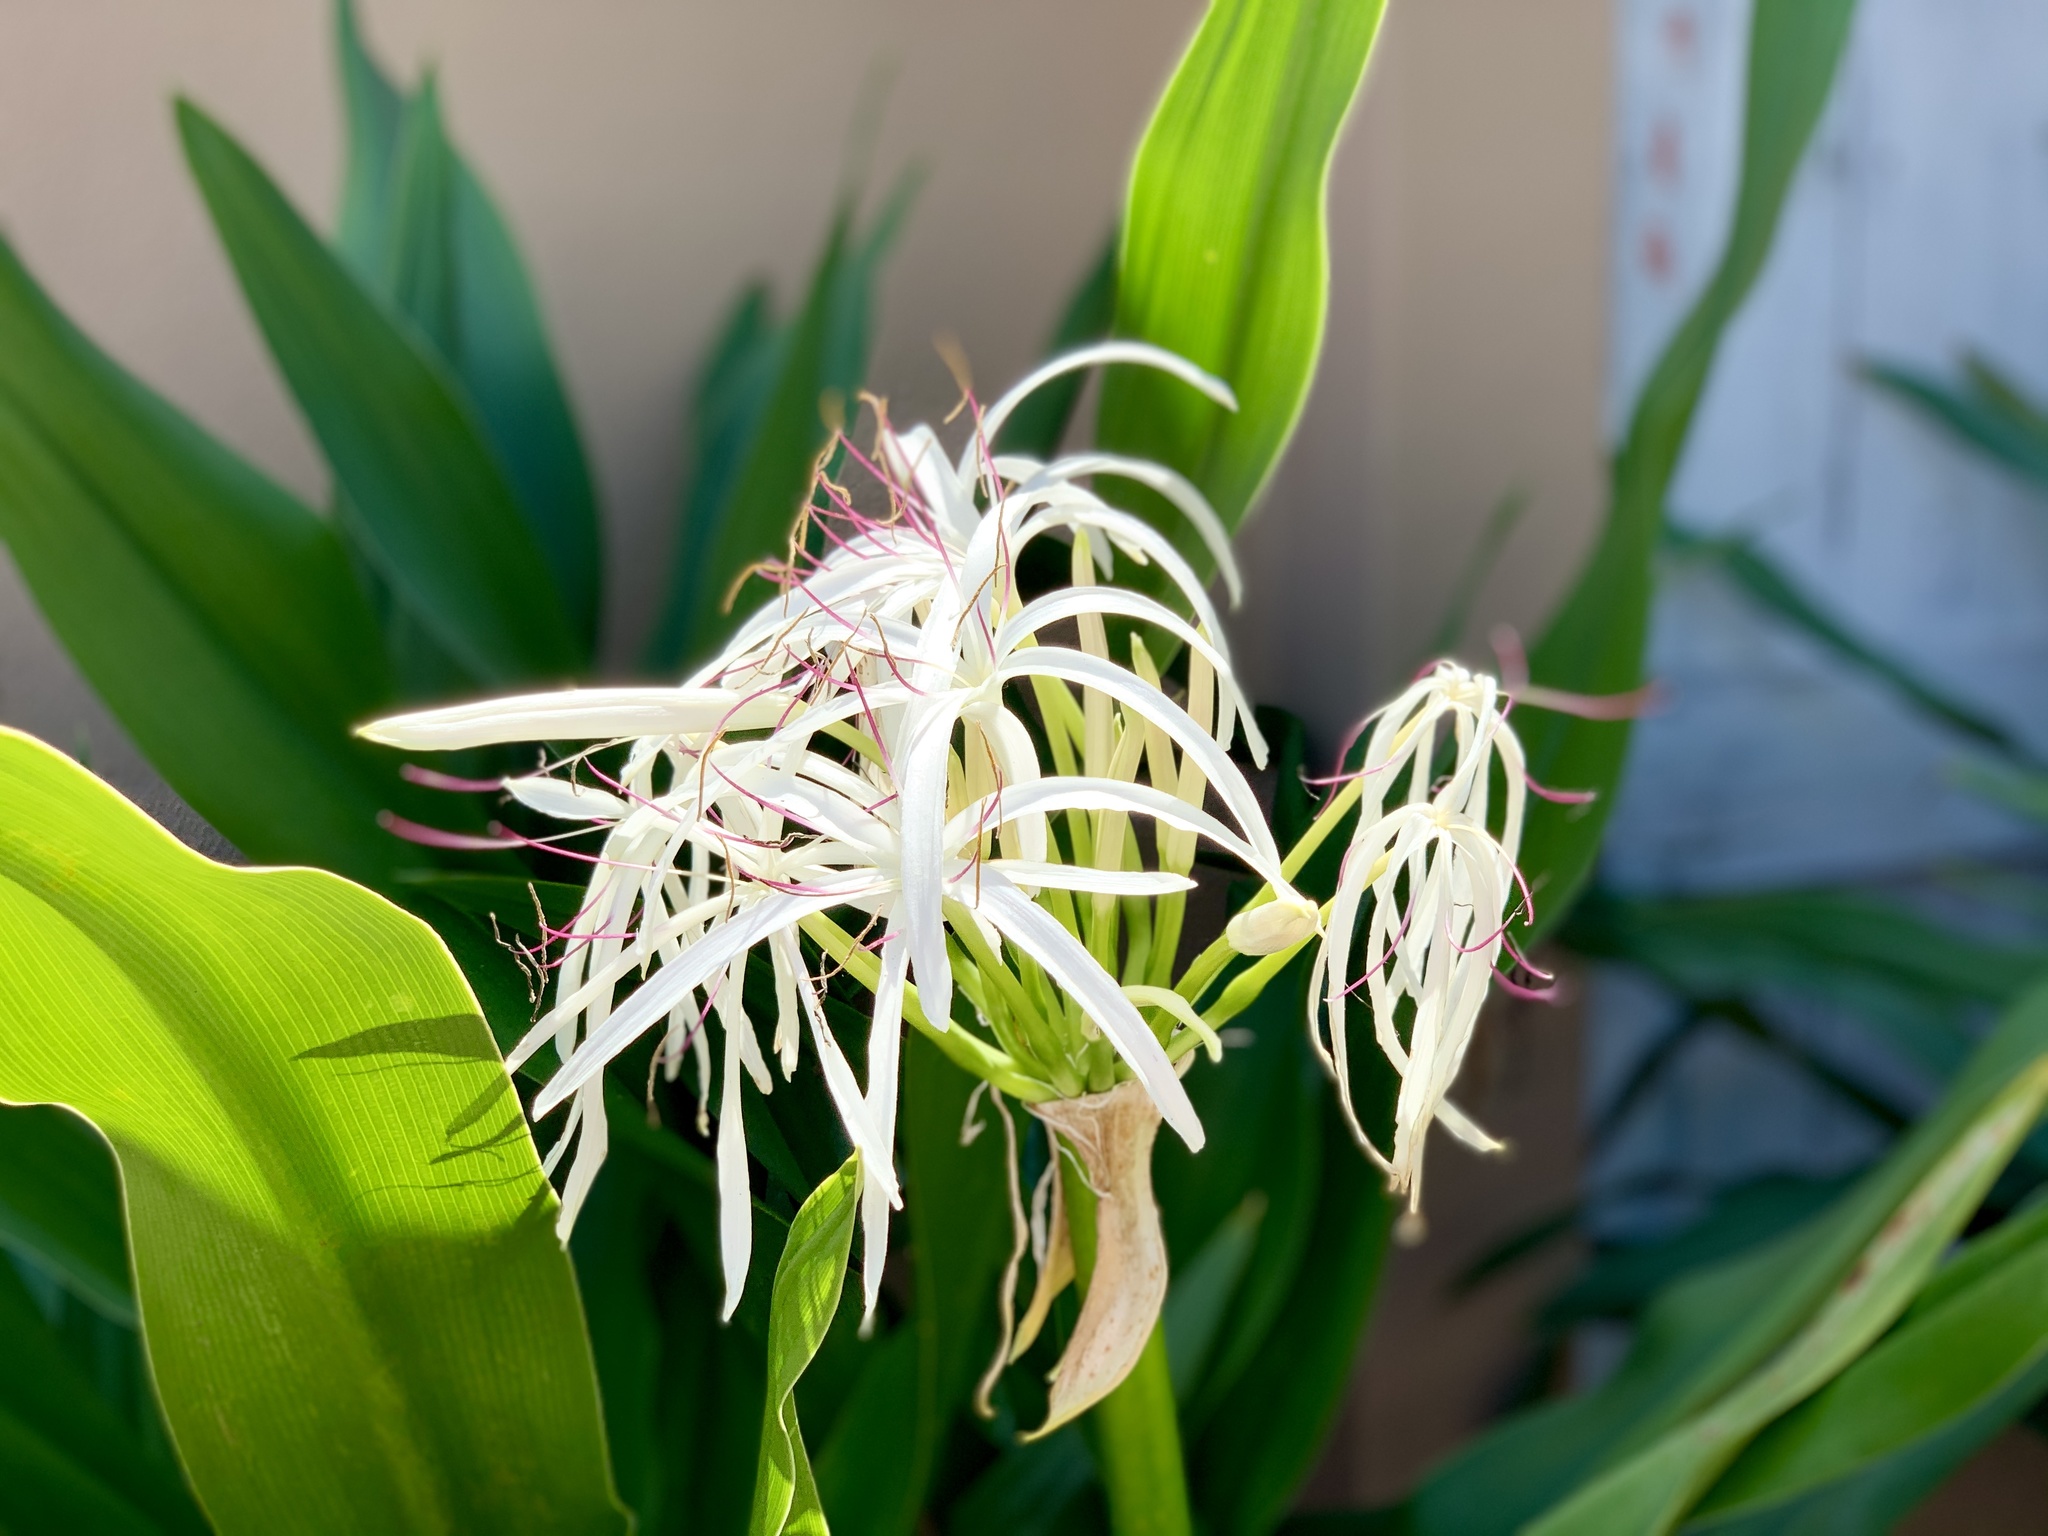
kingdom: Plantae
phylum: Tracheophyta
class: Liliopsida
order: Asparagales
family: Amaryllidaceae
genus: Crinum
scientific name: Crinum americanum
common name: Florida swamp-lily
